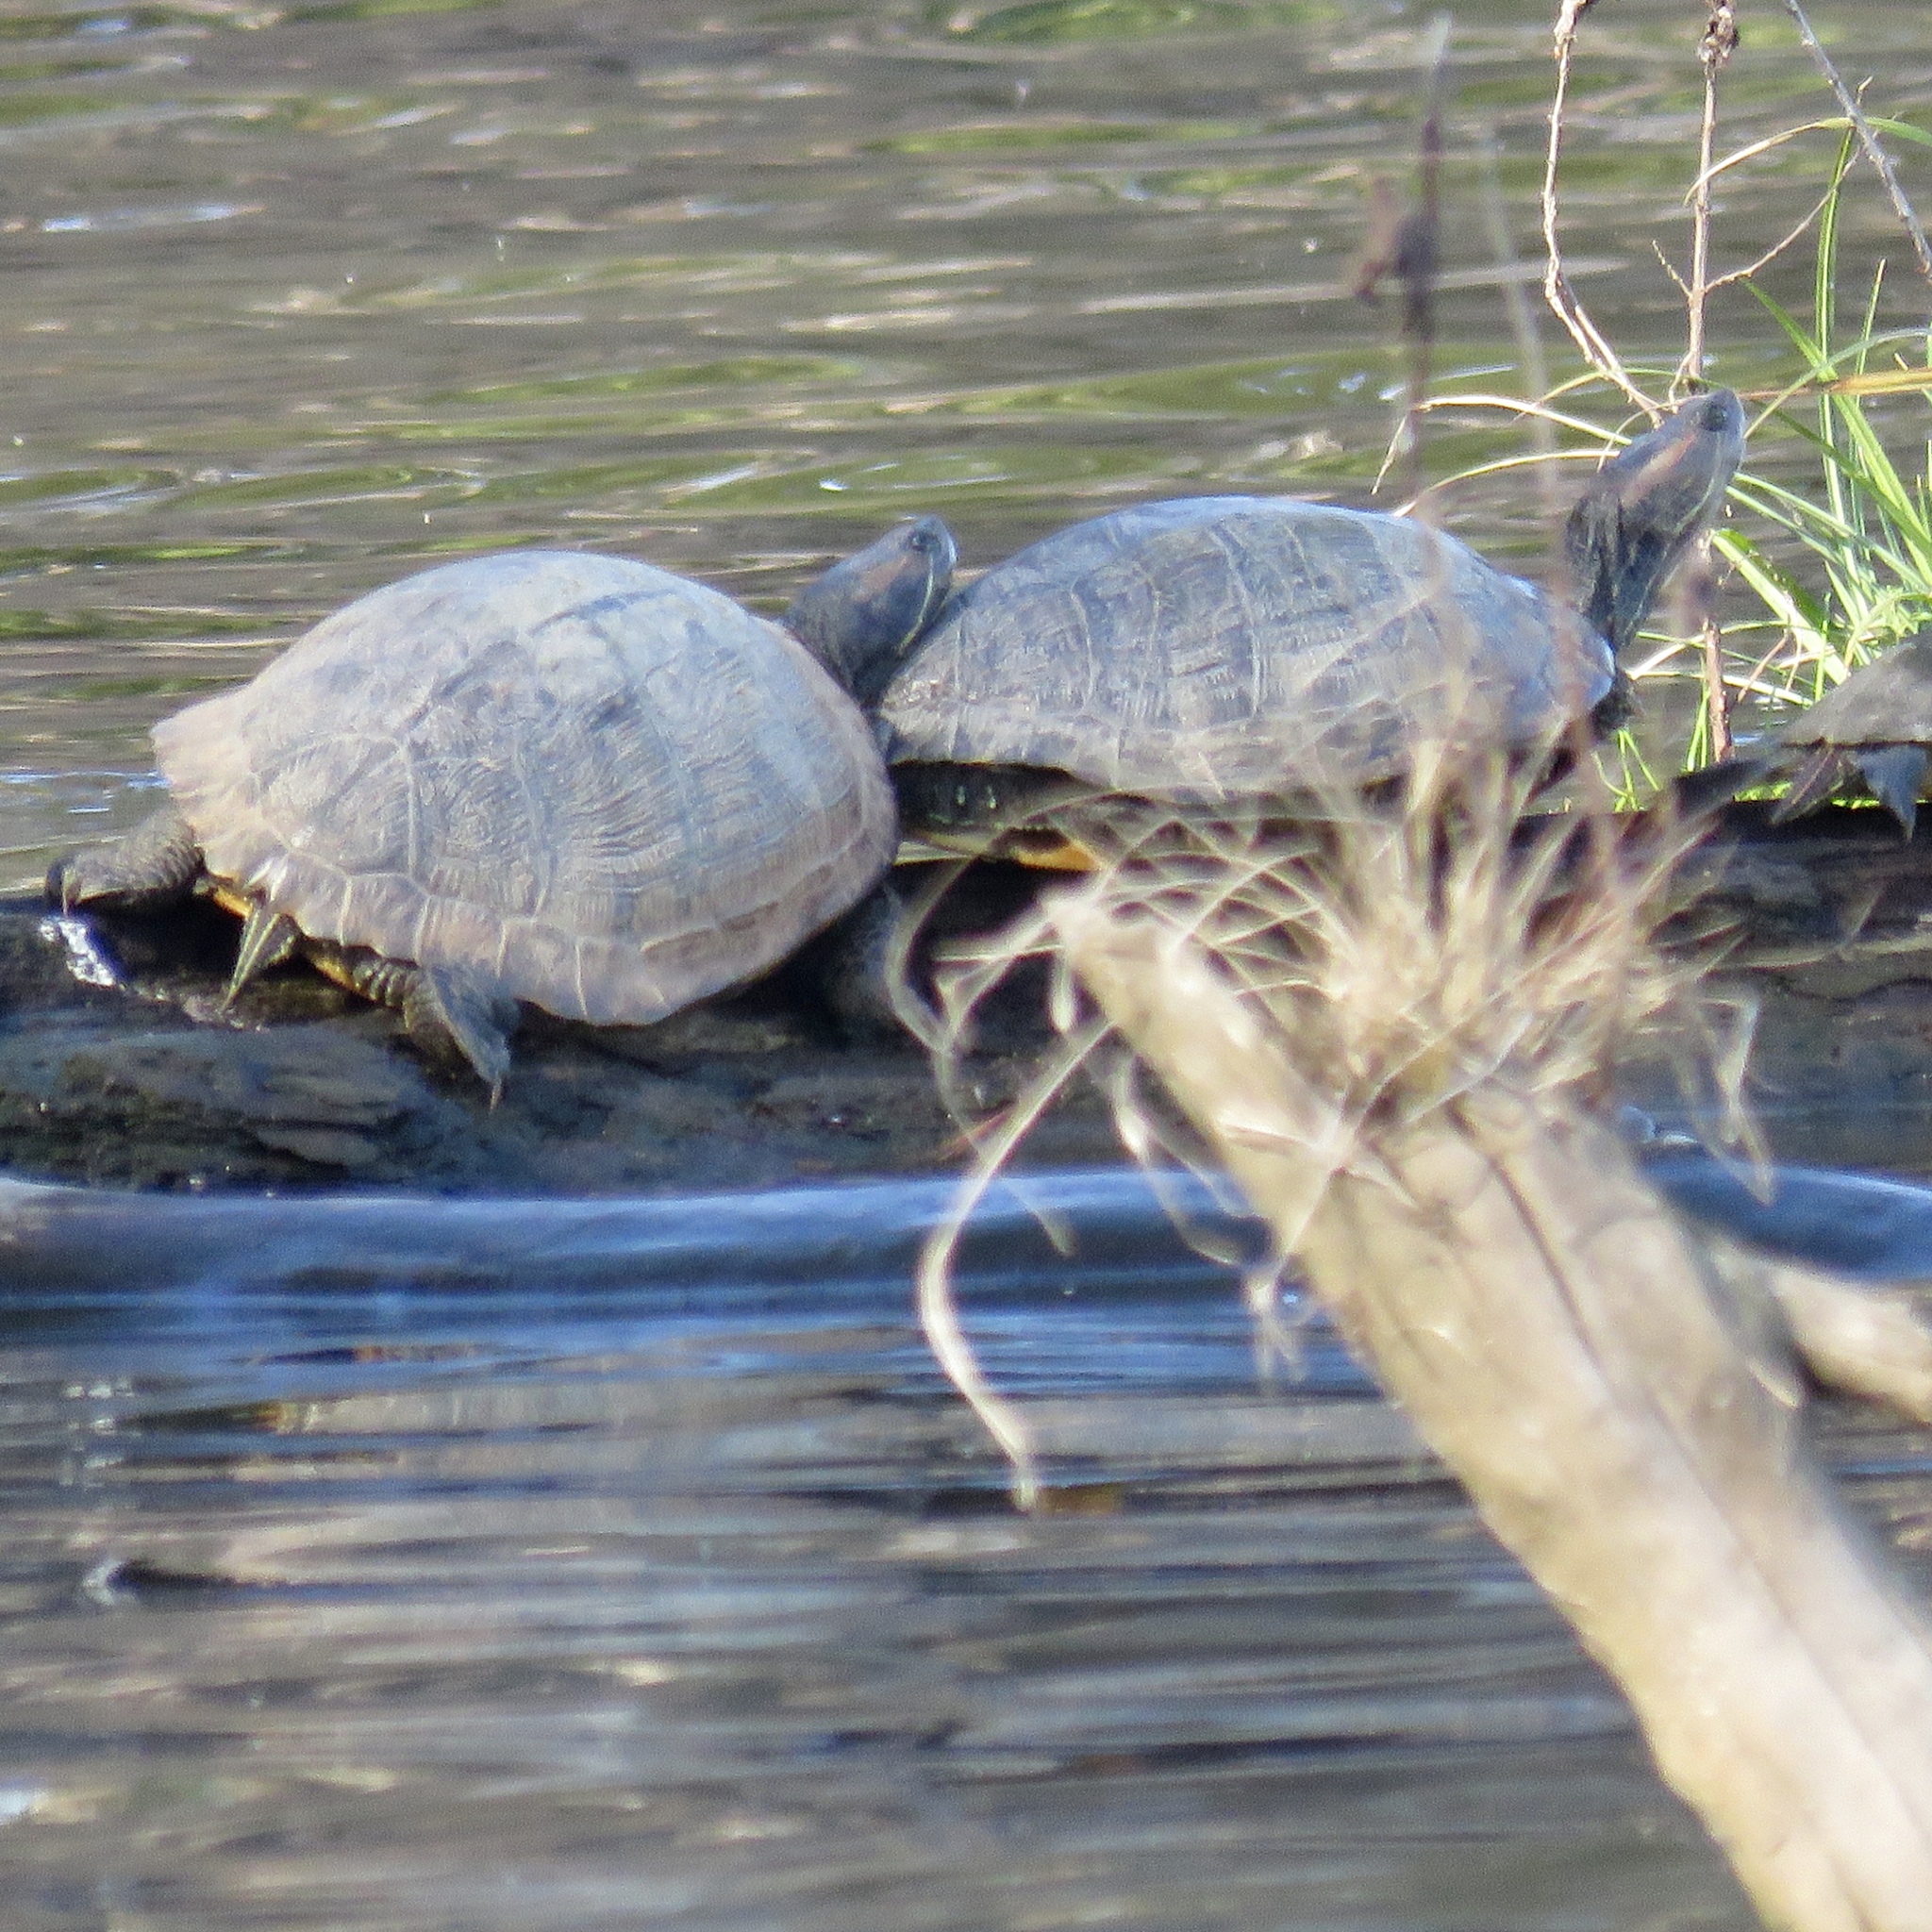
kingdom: Animalia
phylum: Chordata
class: Testudines
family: Emydidae
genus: Trachemys
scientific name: Trachemys scripta
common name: Slider
